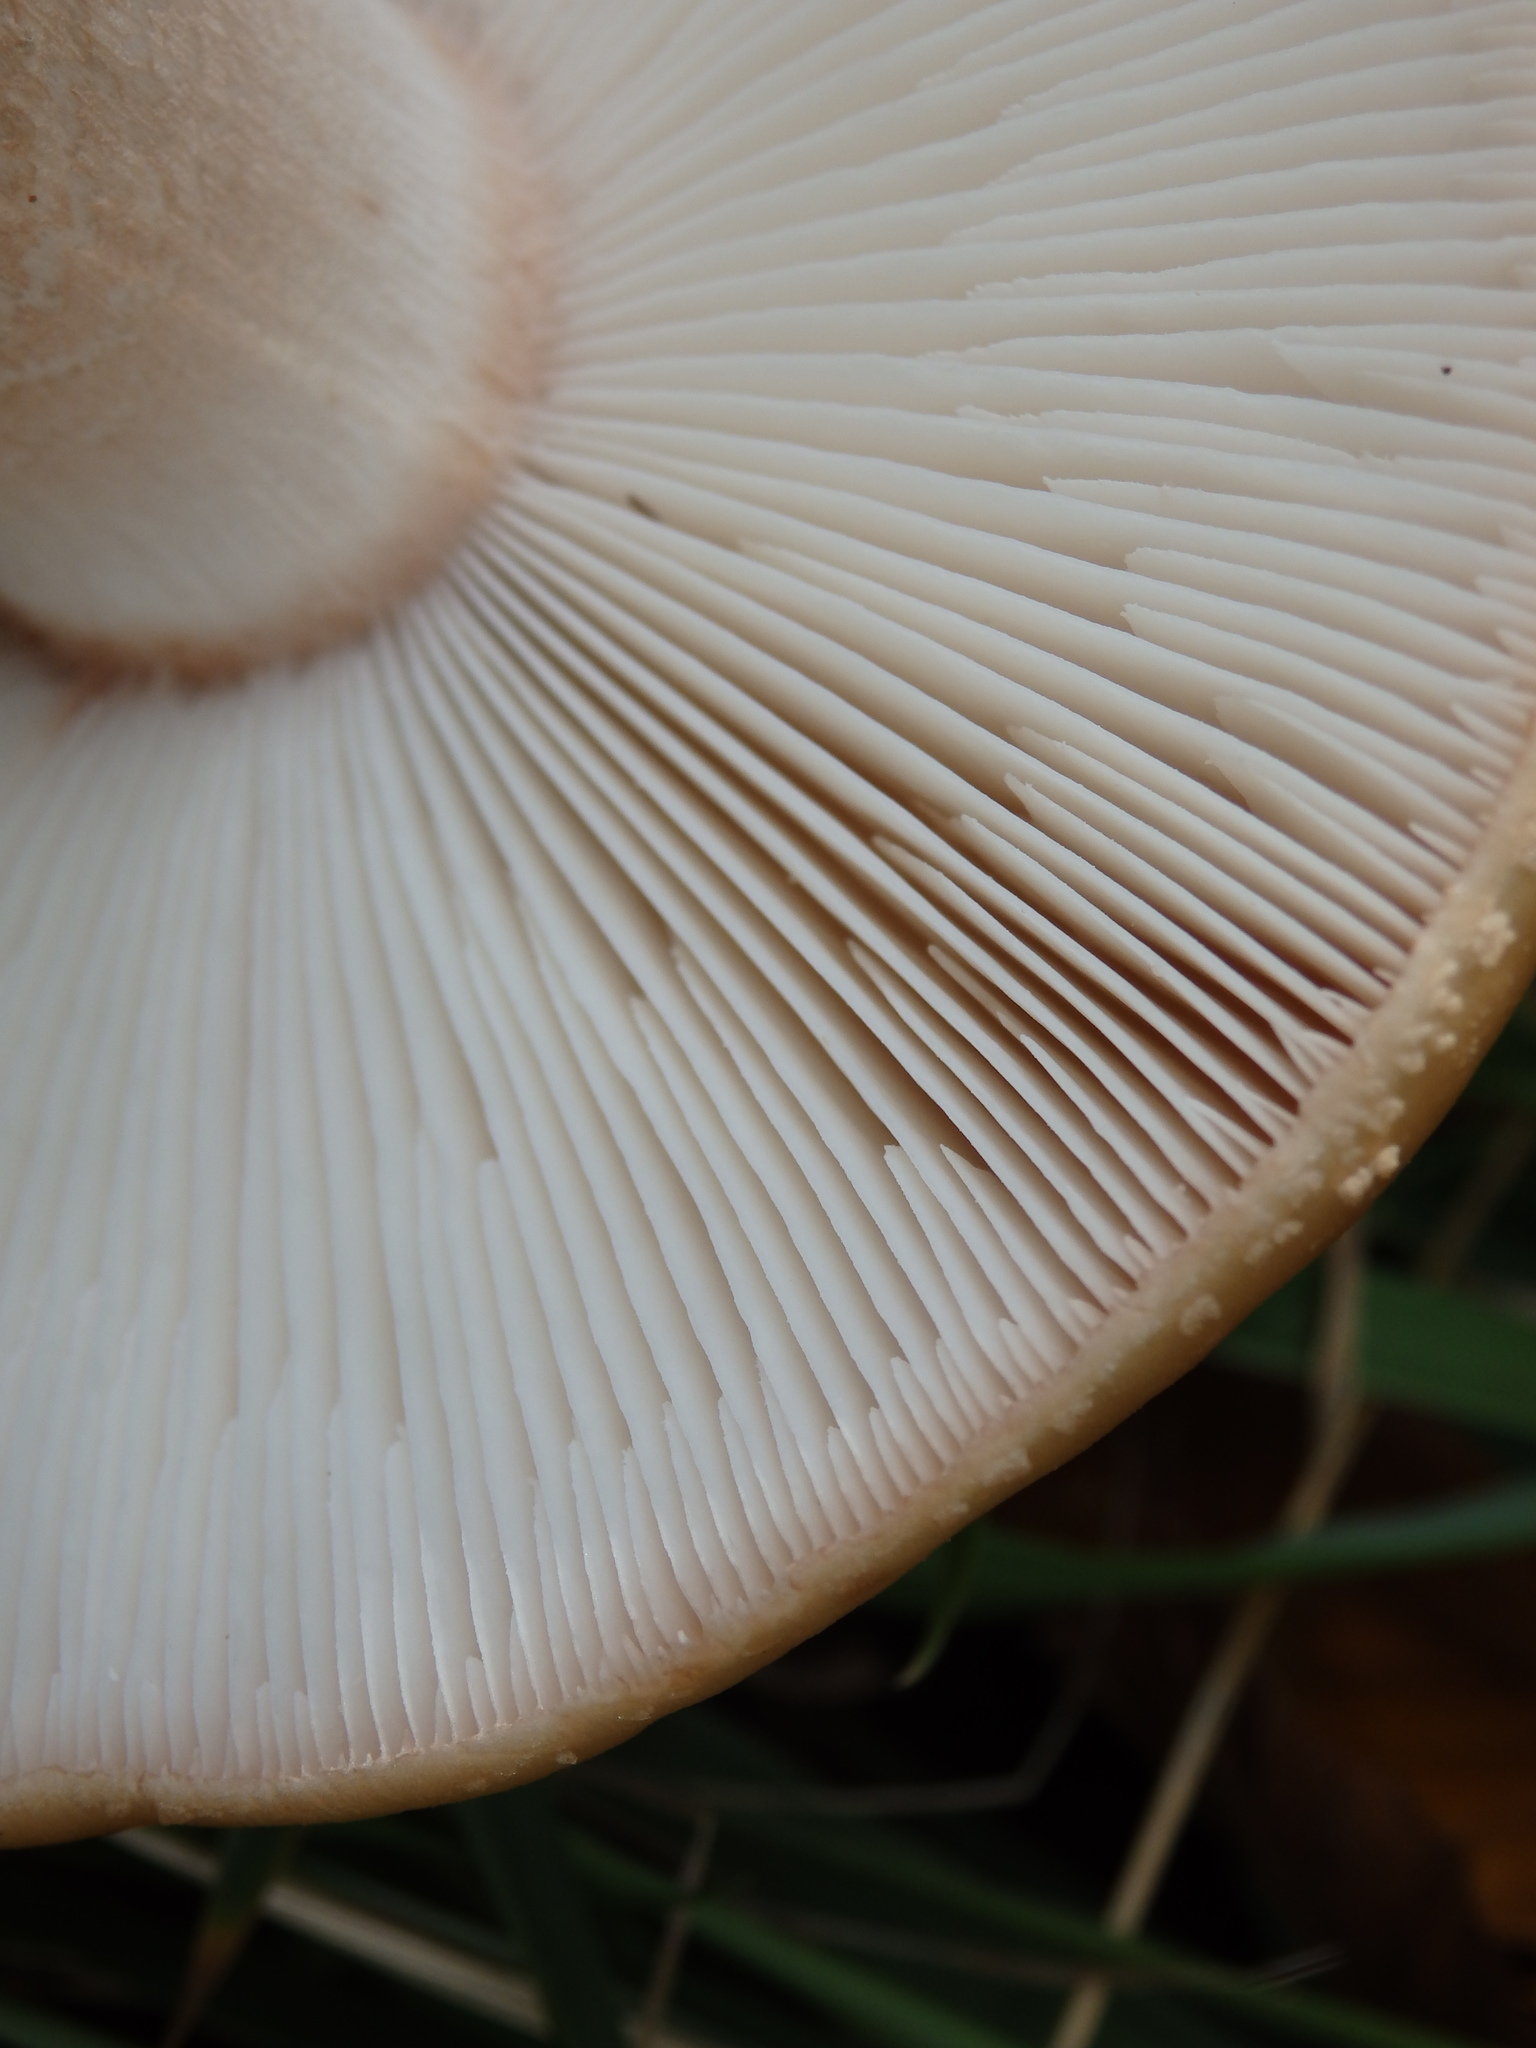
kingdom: Fungi
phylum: Basidiomycota
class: Agaricomycetes
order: Agaricales
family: Amanitaceae
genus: Amanita
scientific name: Amanita rubescens
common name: Blusher
